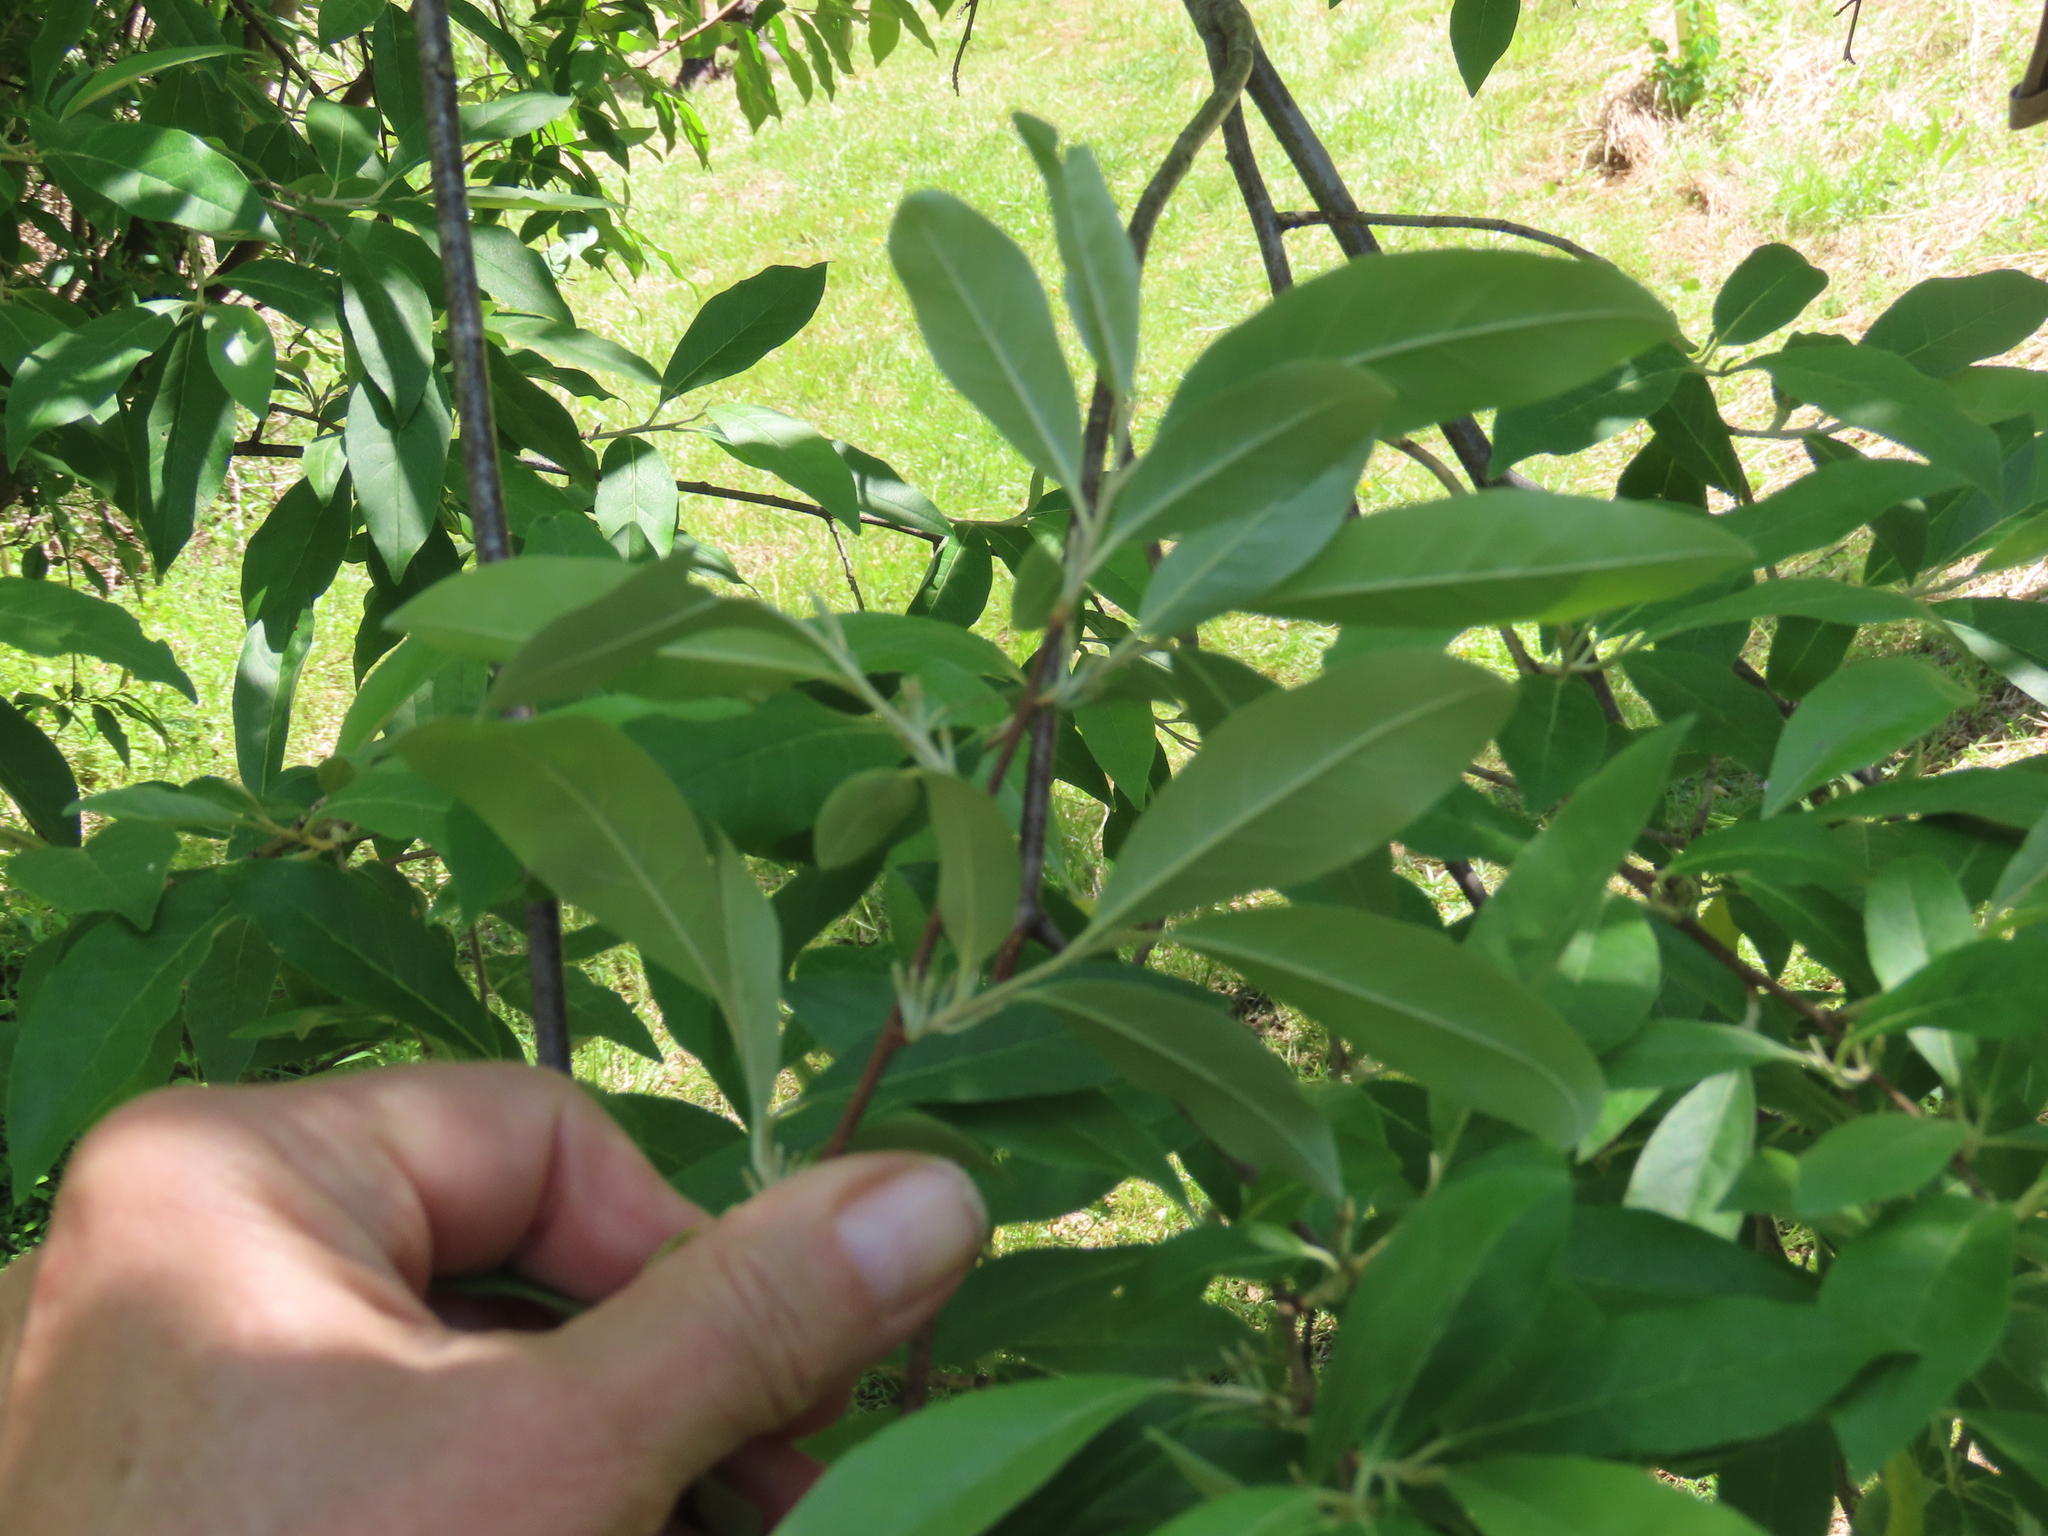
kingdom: Plantae
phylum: Tracheophyta
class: Magnoliopsida
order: Rosales
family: Elaeagnaceae
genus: Elaeagnus
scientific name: Elaeagnus umbellata
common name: Autumn olive
